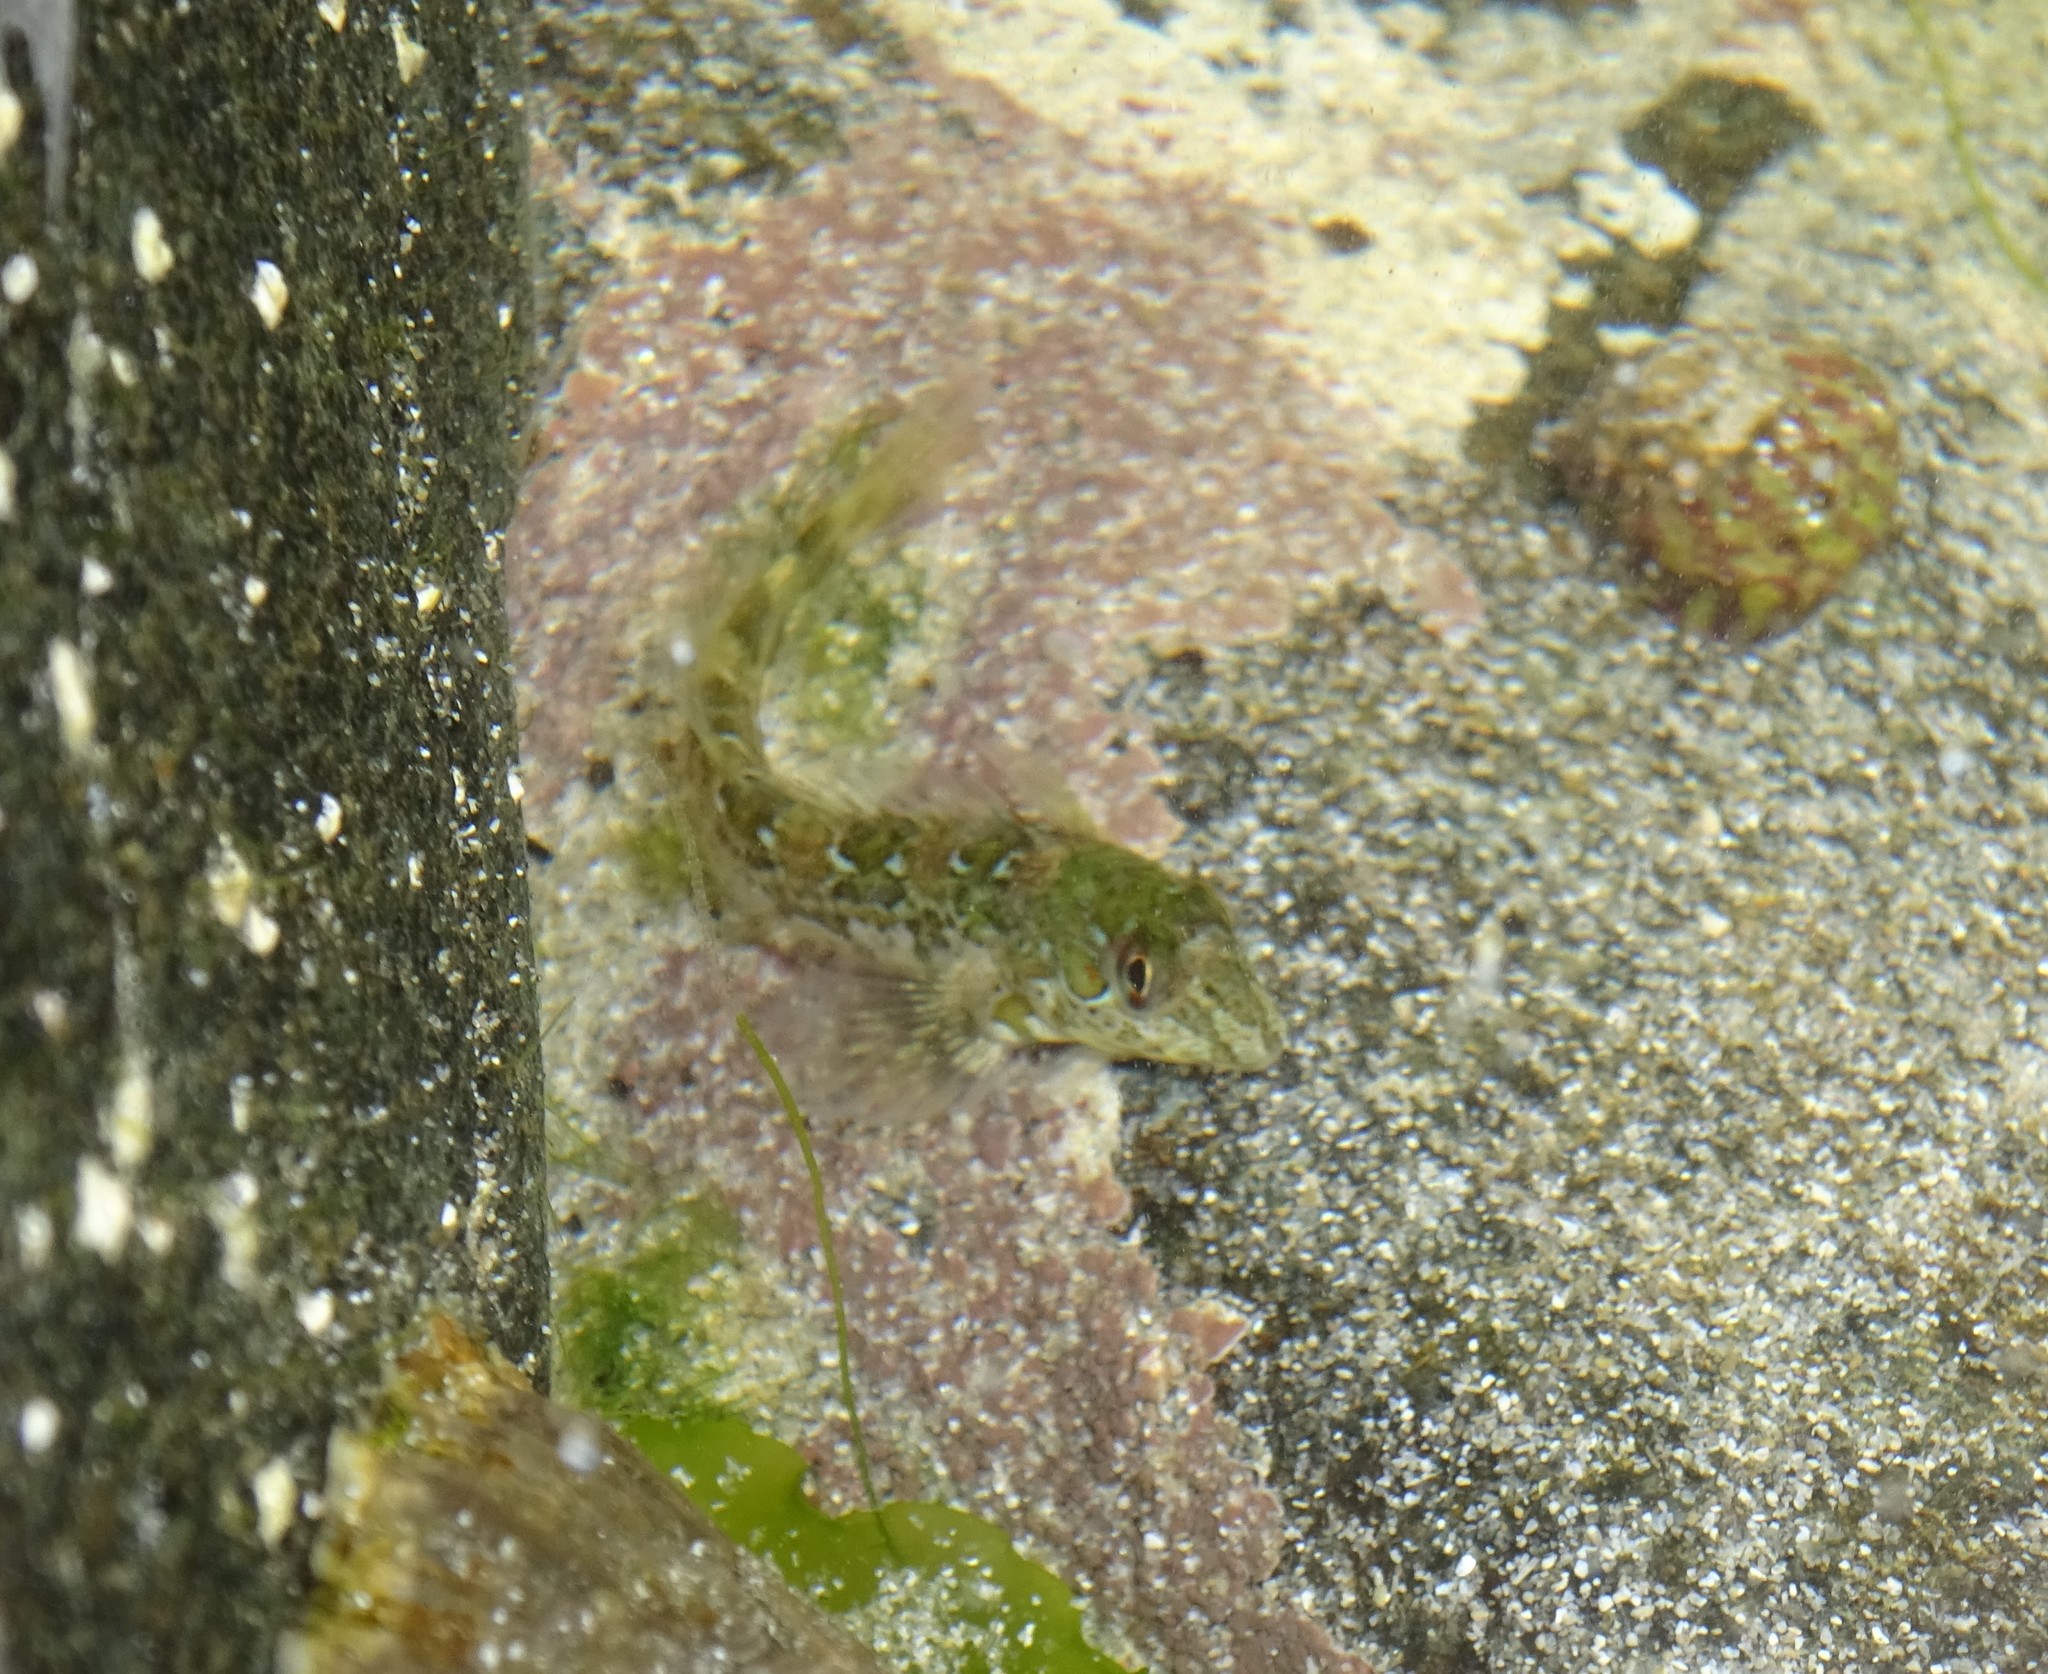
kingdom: Animalia
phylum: Chordata
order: Perciformes
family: Blenniidae
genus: Lipophrys
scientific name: Lipophrys pholis
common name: Shanny
